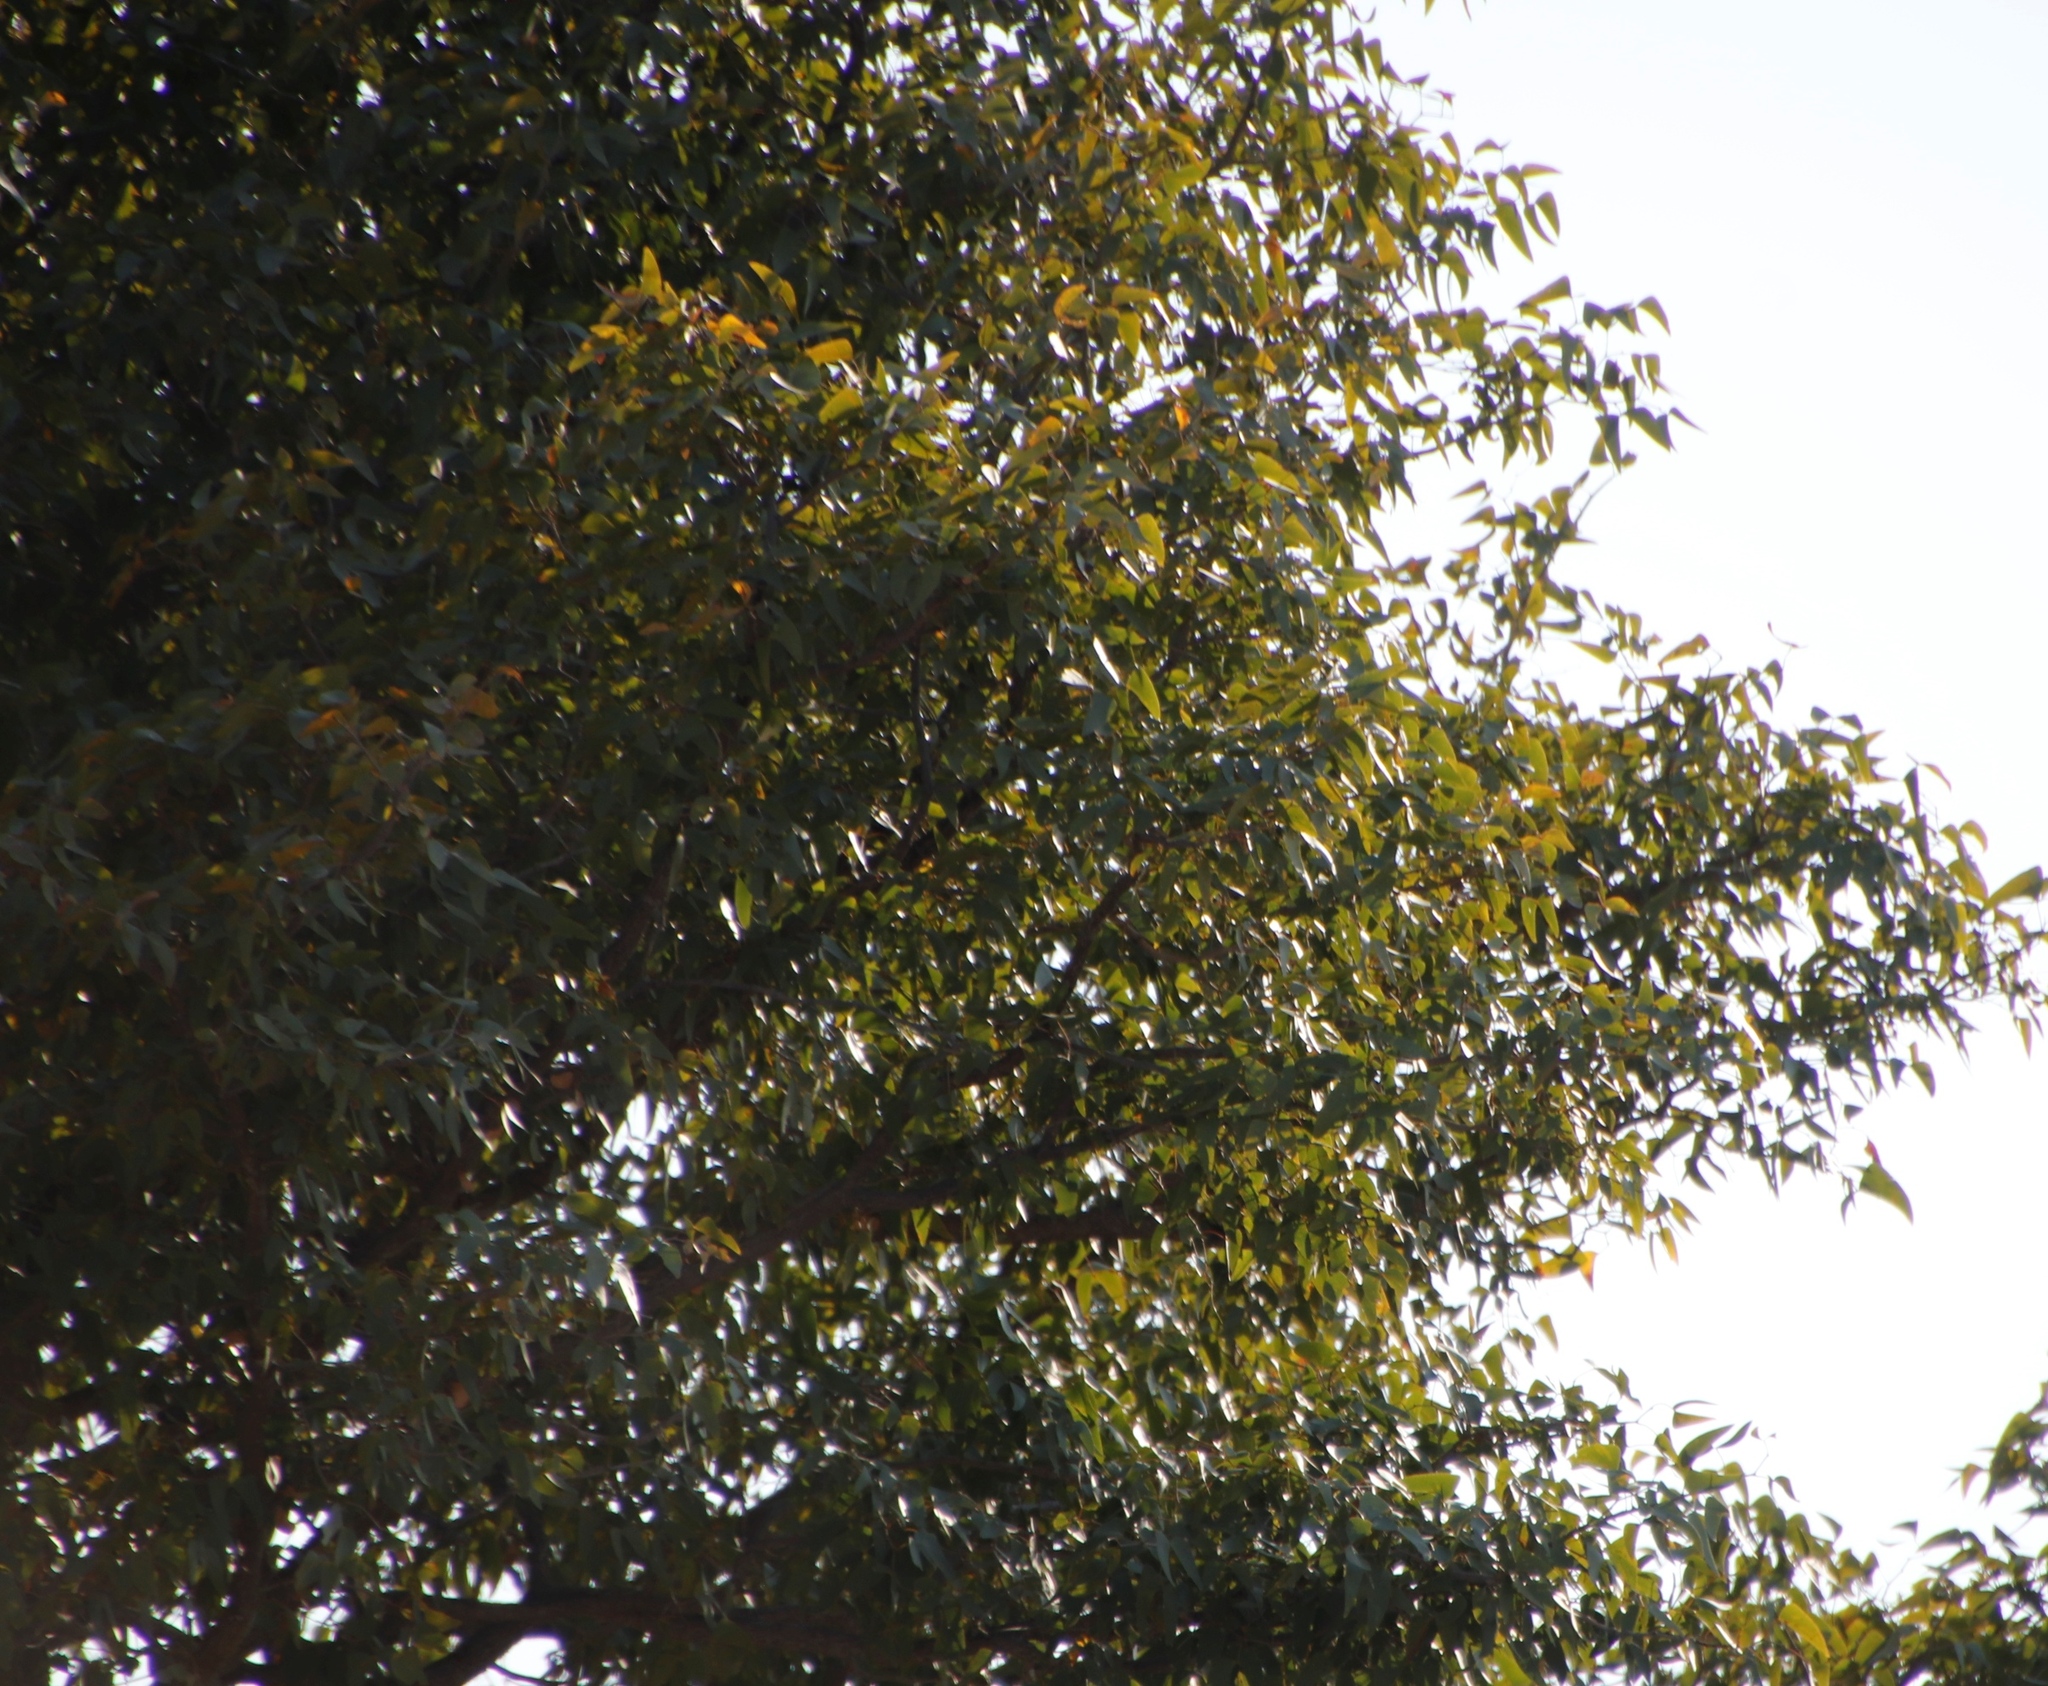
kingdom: Plantae
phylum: Tracheophyta
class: Magnoliopsida
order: Fabales
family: Fabaceae
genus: Colophospermum
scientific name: Colophospermum mopane
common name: Mopane
